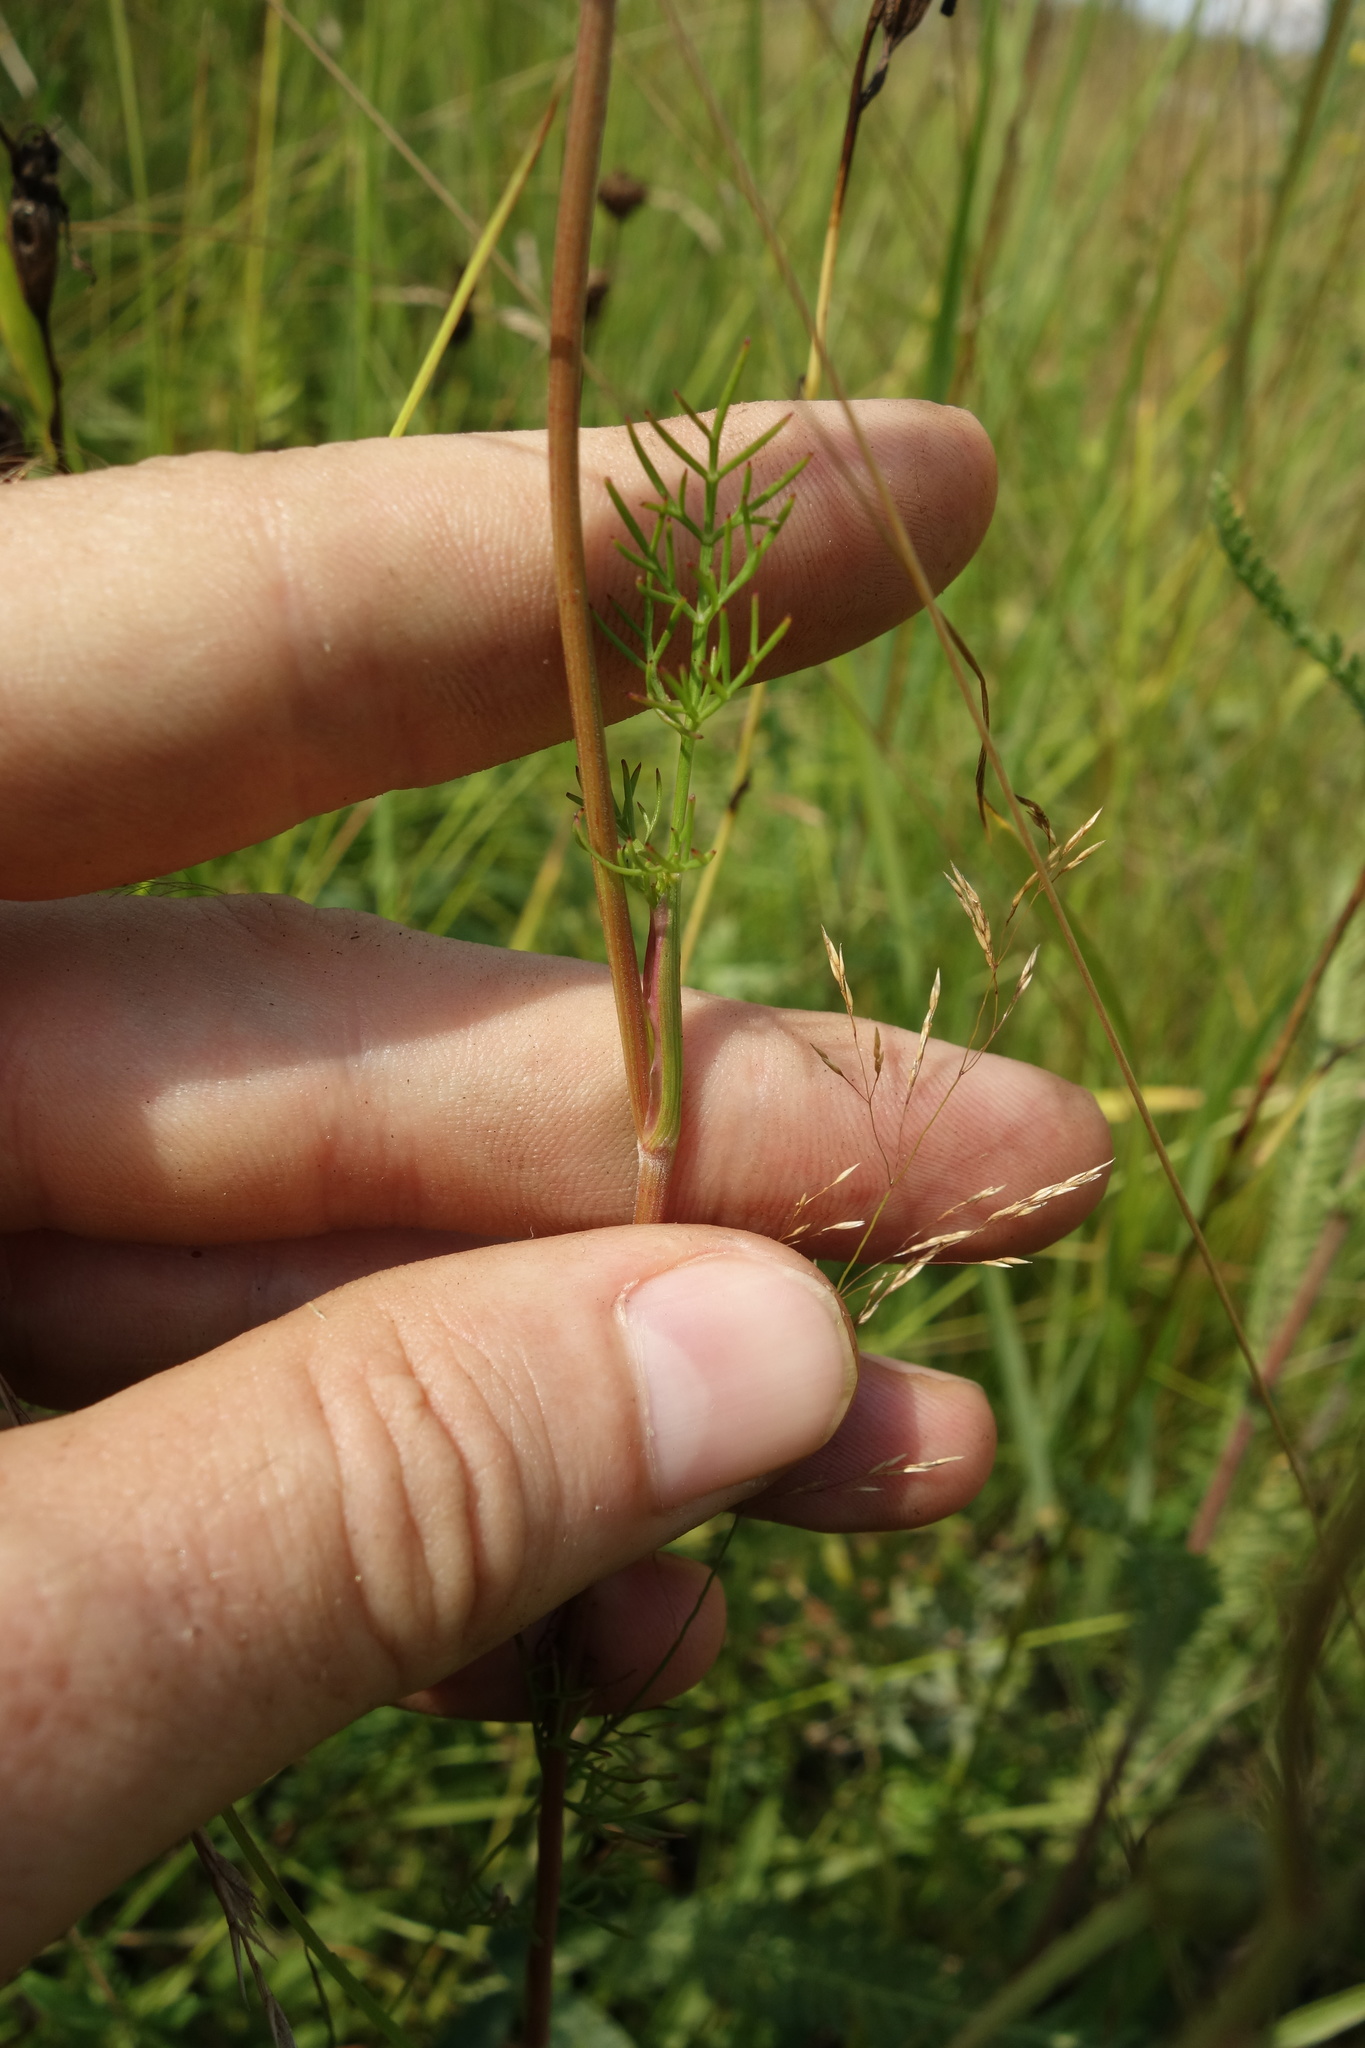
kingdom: Plantae
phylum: Tracheophyta
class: Magnoliopsida
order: Apiales
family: Apiaceae
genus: Seseli
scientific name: Seseli annuum
